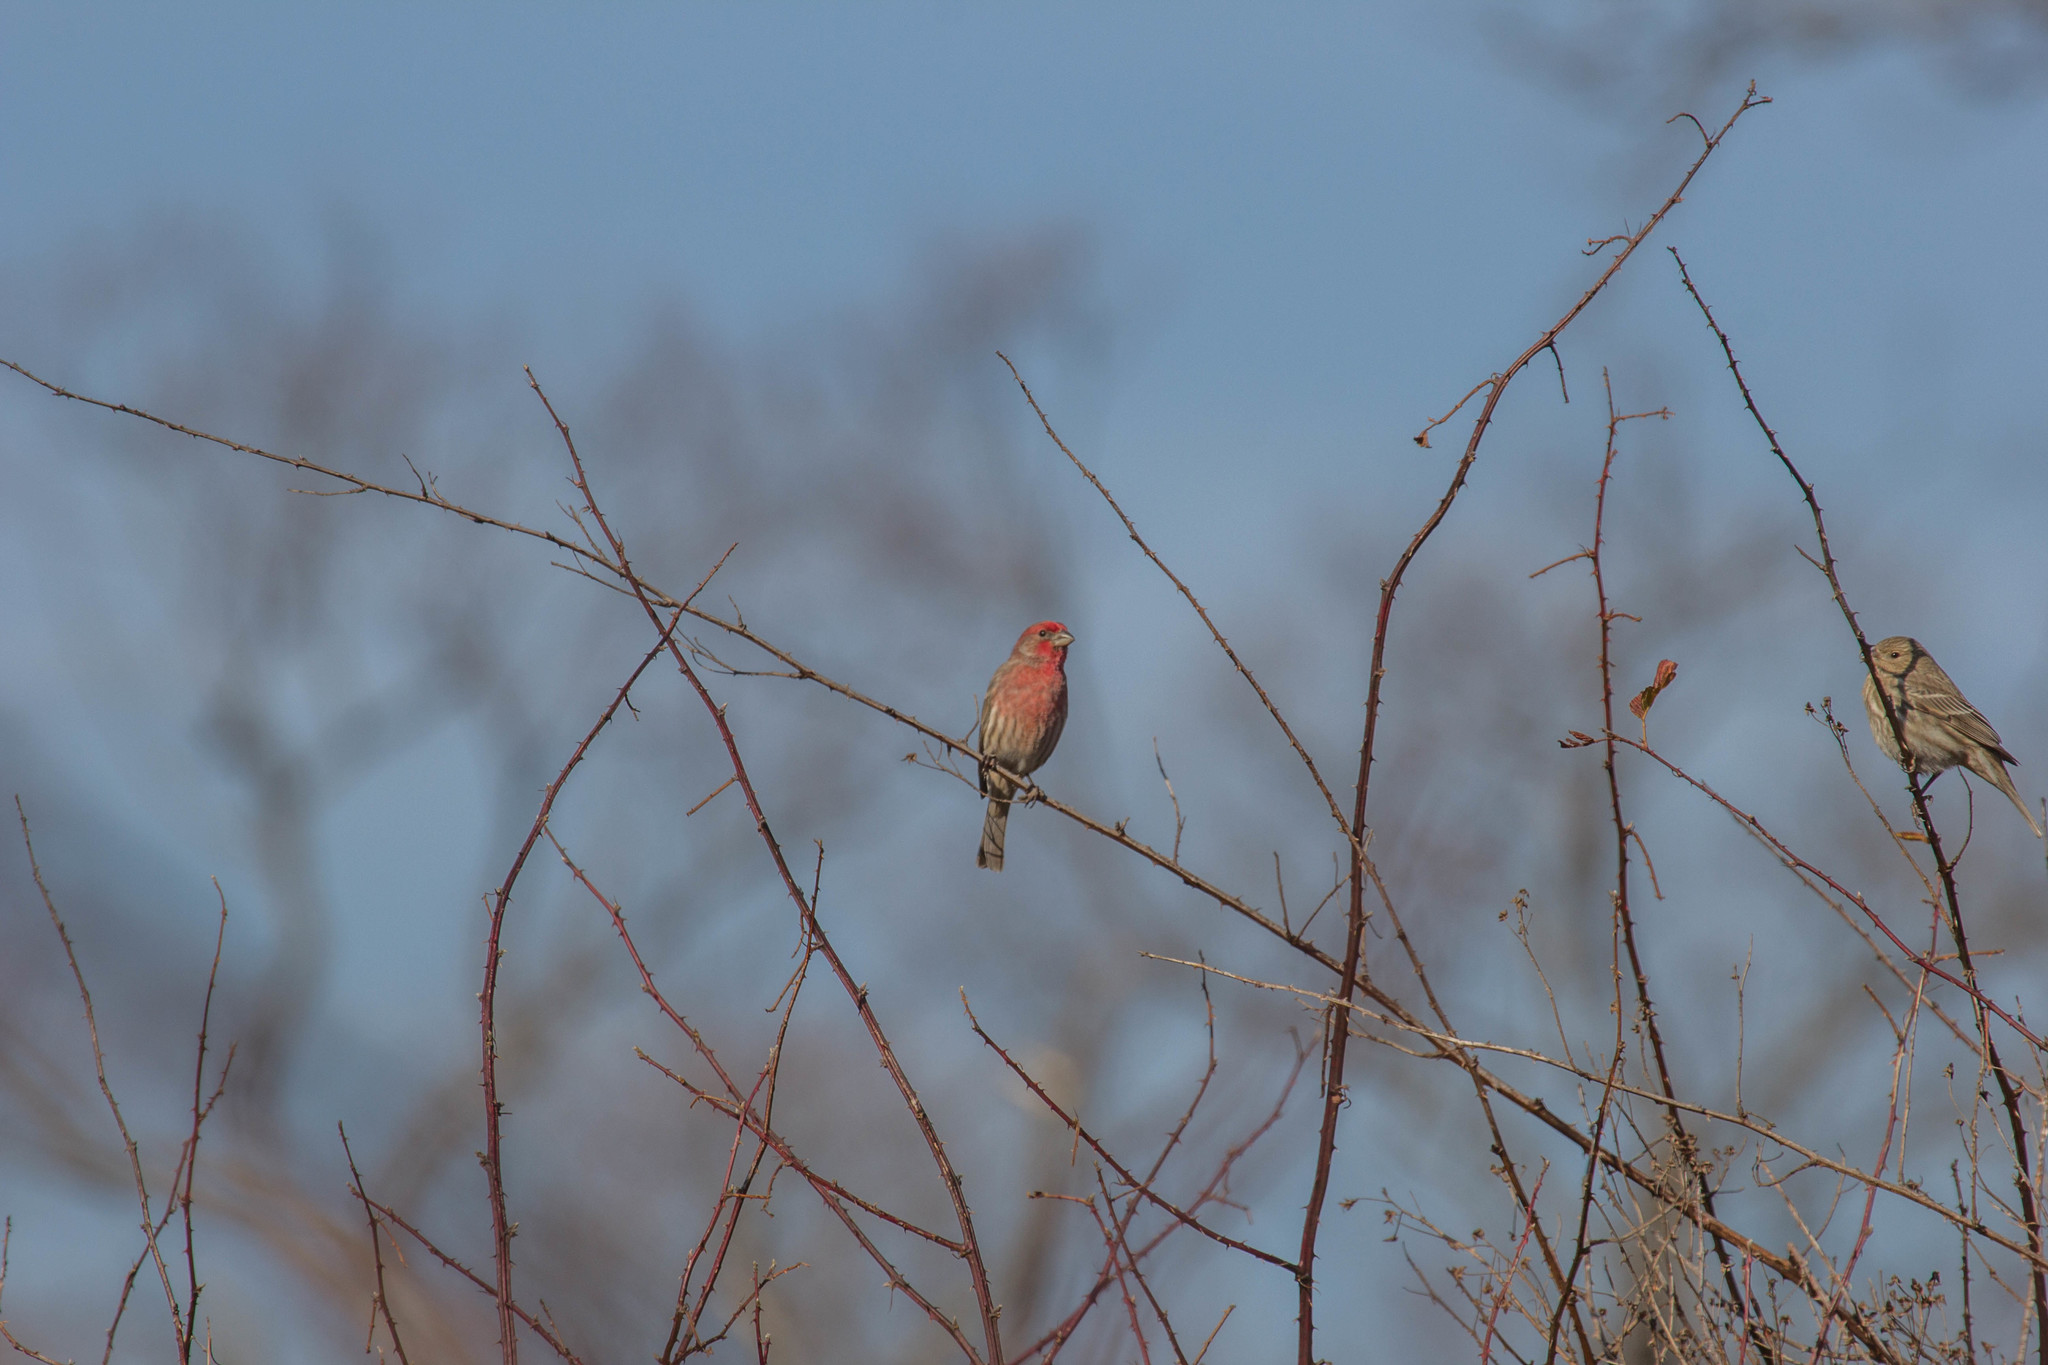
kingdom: Animalia
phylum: Chordata
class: Aves
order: Passeriformes
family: Fringillidae
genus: Haemorhous
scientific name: Haemorhous mexicanus
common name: House finch
